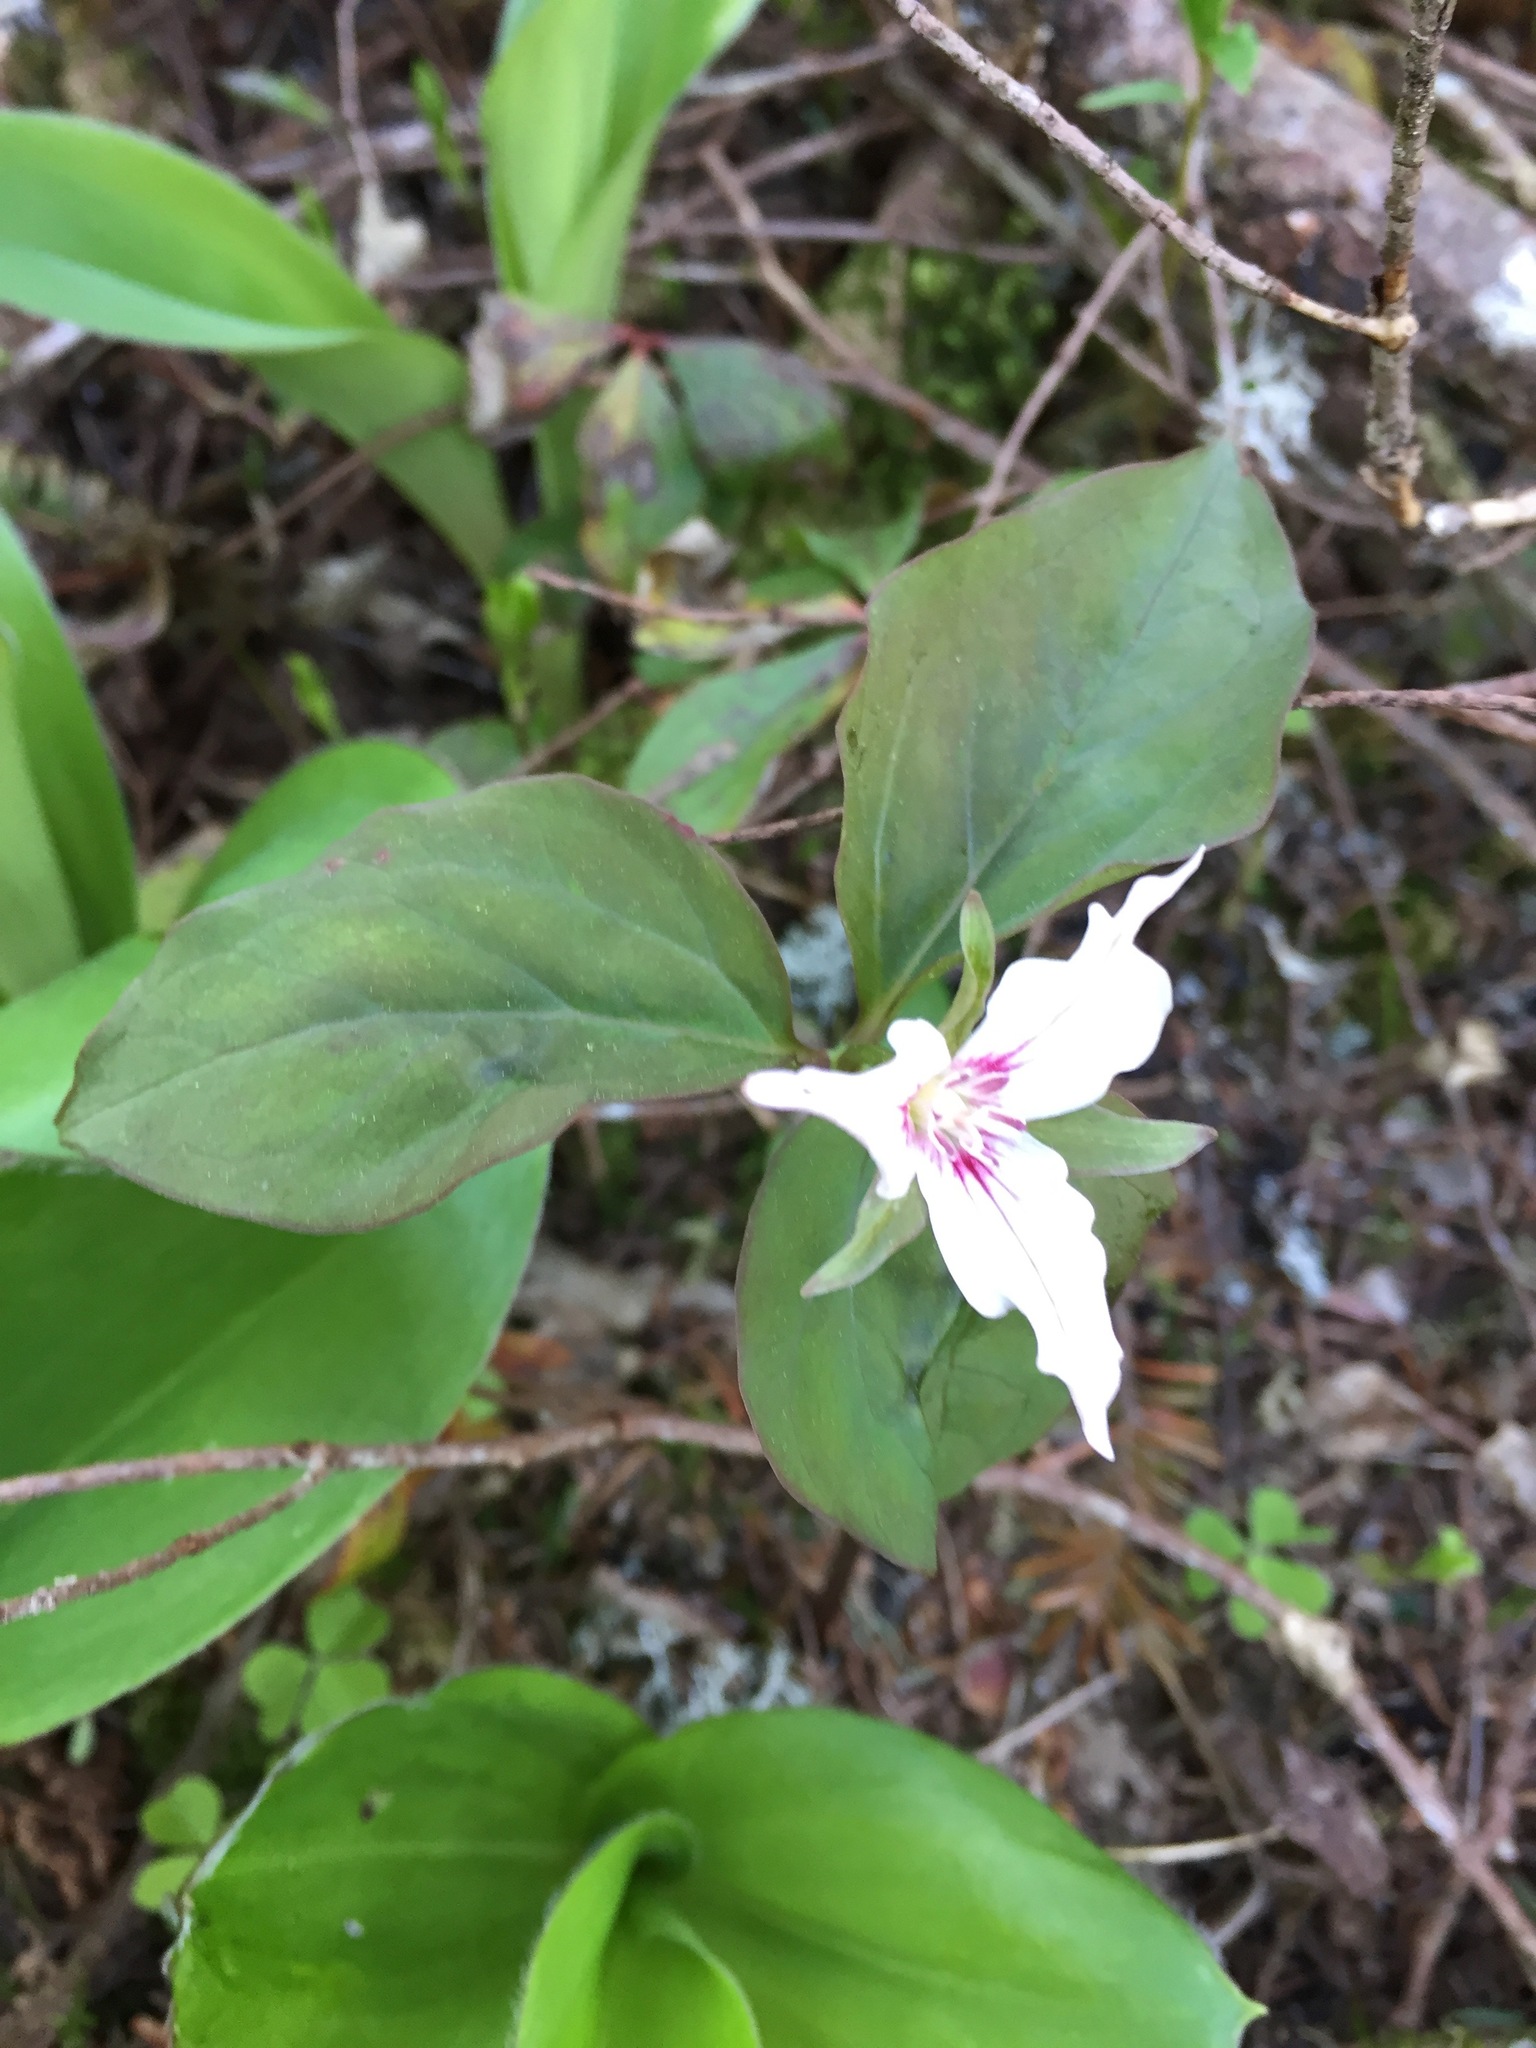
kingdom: Plantae
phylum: Tracheophyta
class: Liliopsida
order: Liliales
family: Melanthiaceae
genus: Trillium
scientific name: Trillium undulatum
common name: Paint trillium
